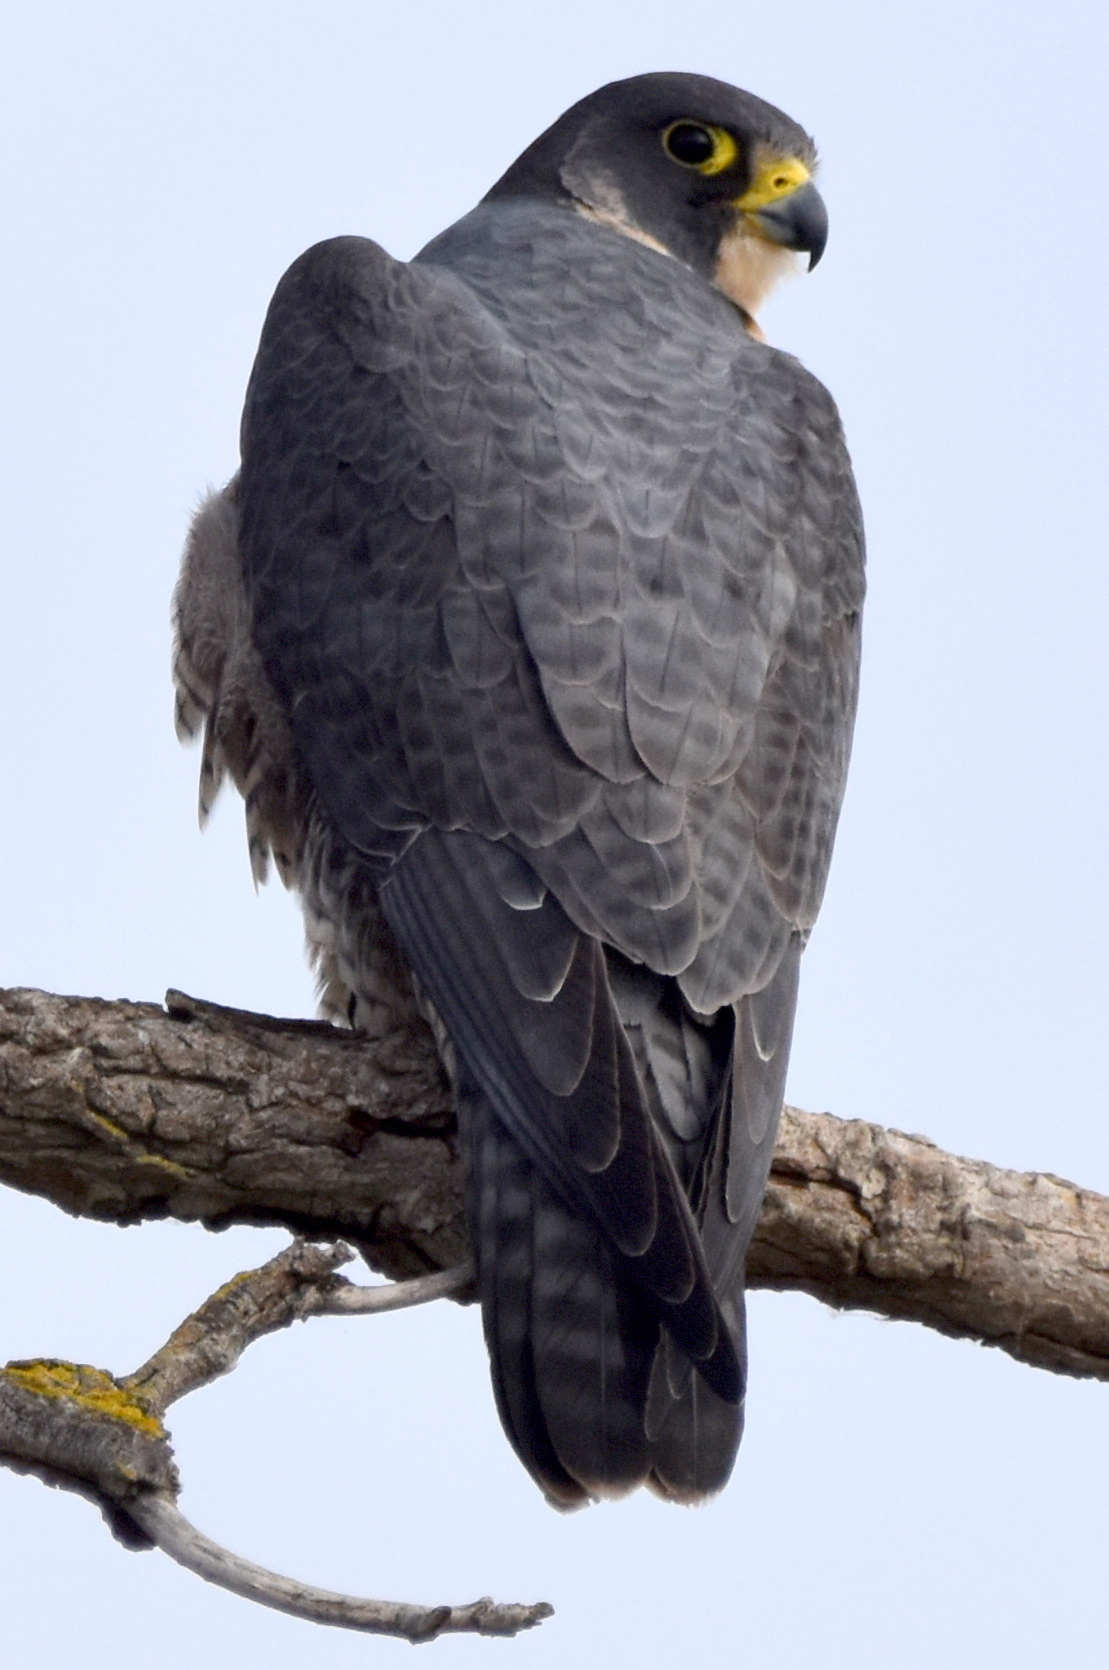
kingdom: Animalia
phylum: Chordata
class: Aves
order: Falconiformes
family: Falconidae
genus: Falco
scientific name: Falco peregrinus
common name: Peregrine falcon
